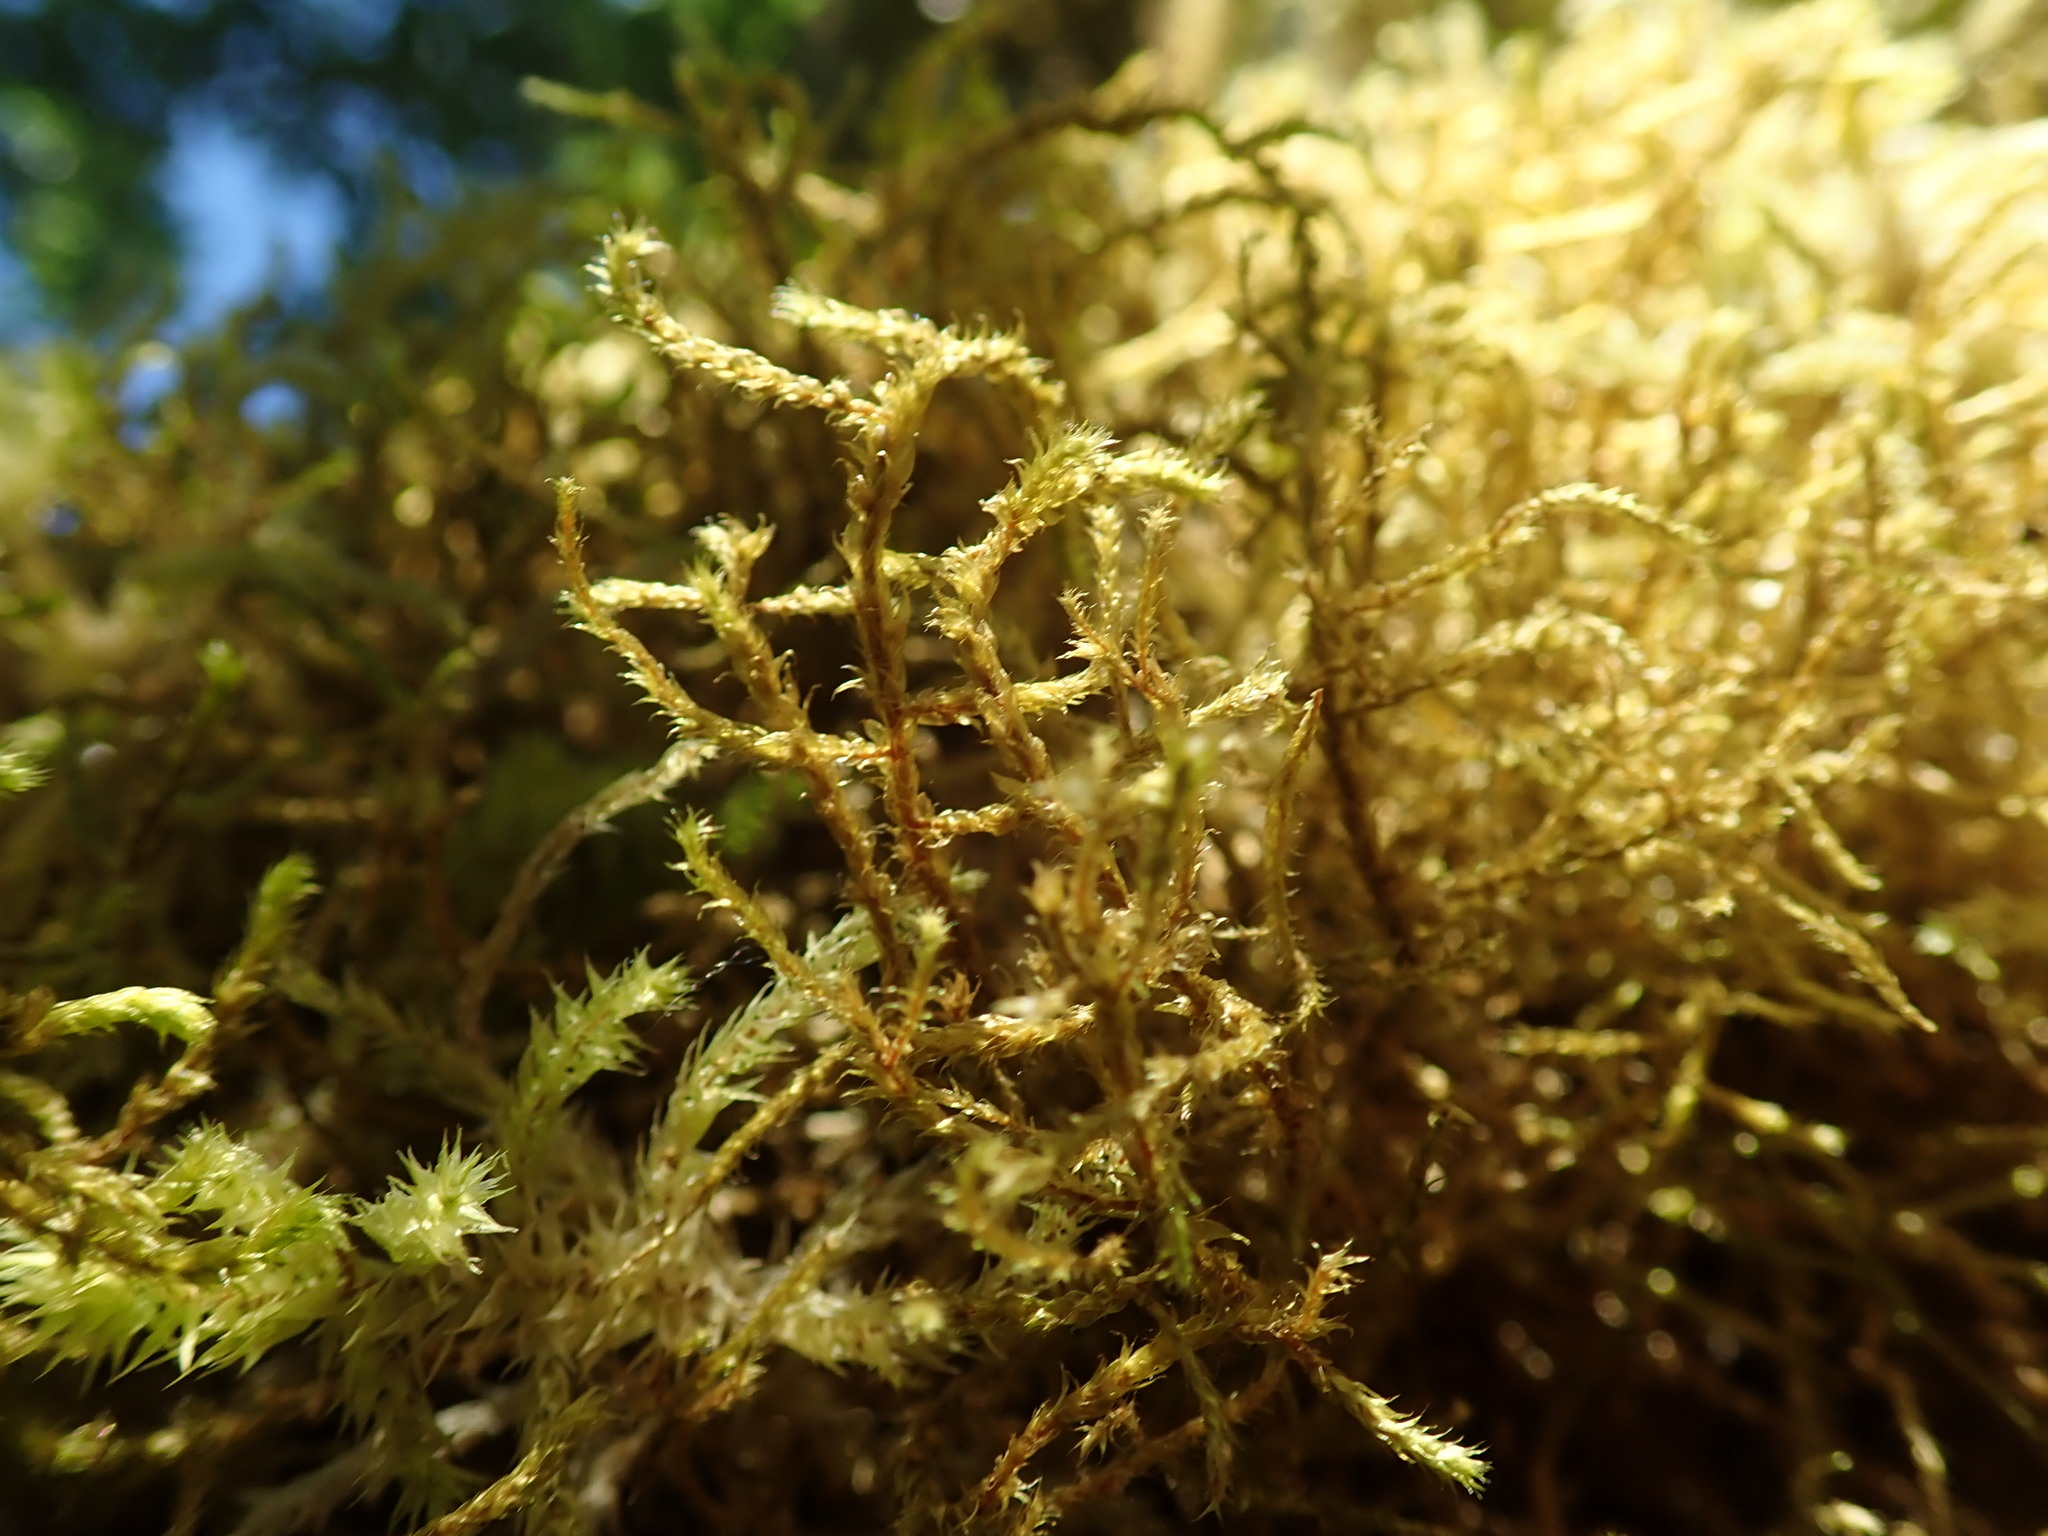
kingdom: Plantae
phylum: Bryophyta
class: Bryopsida
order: Hypnales
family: Antitrichiaceae
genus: Antitrichia
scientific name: Antitrichia curtipendula
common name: Pendulous wing-moss
